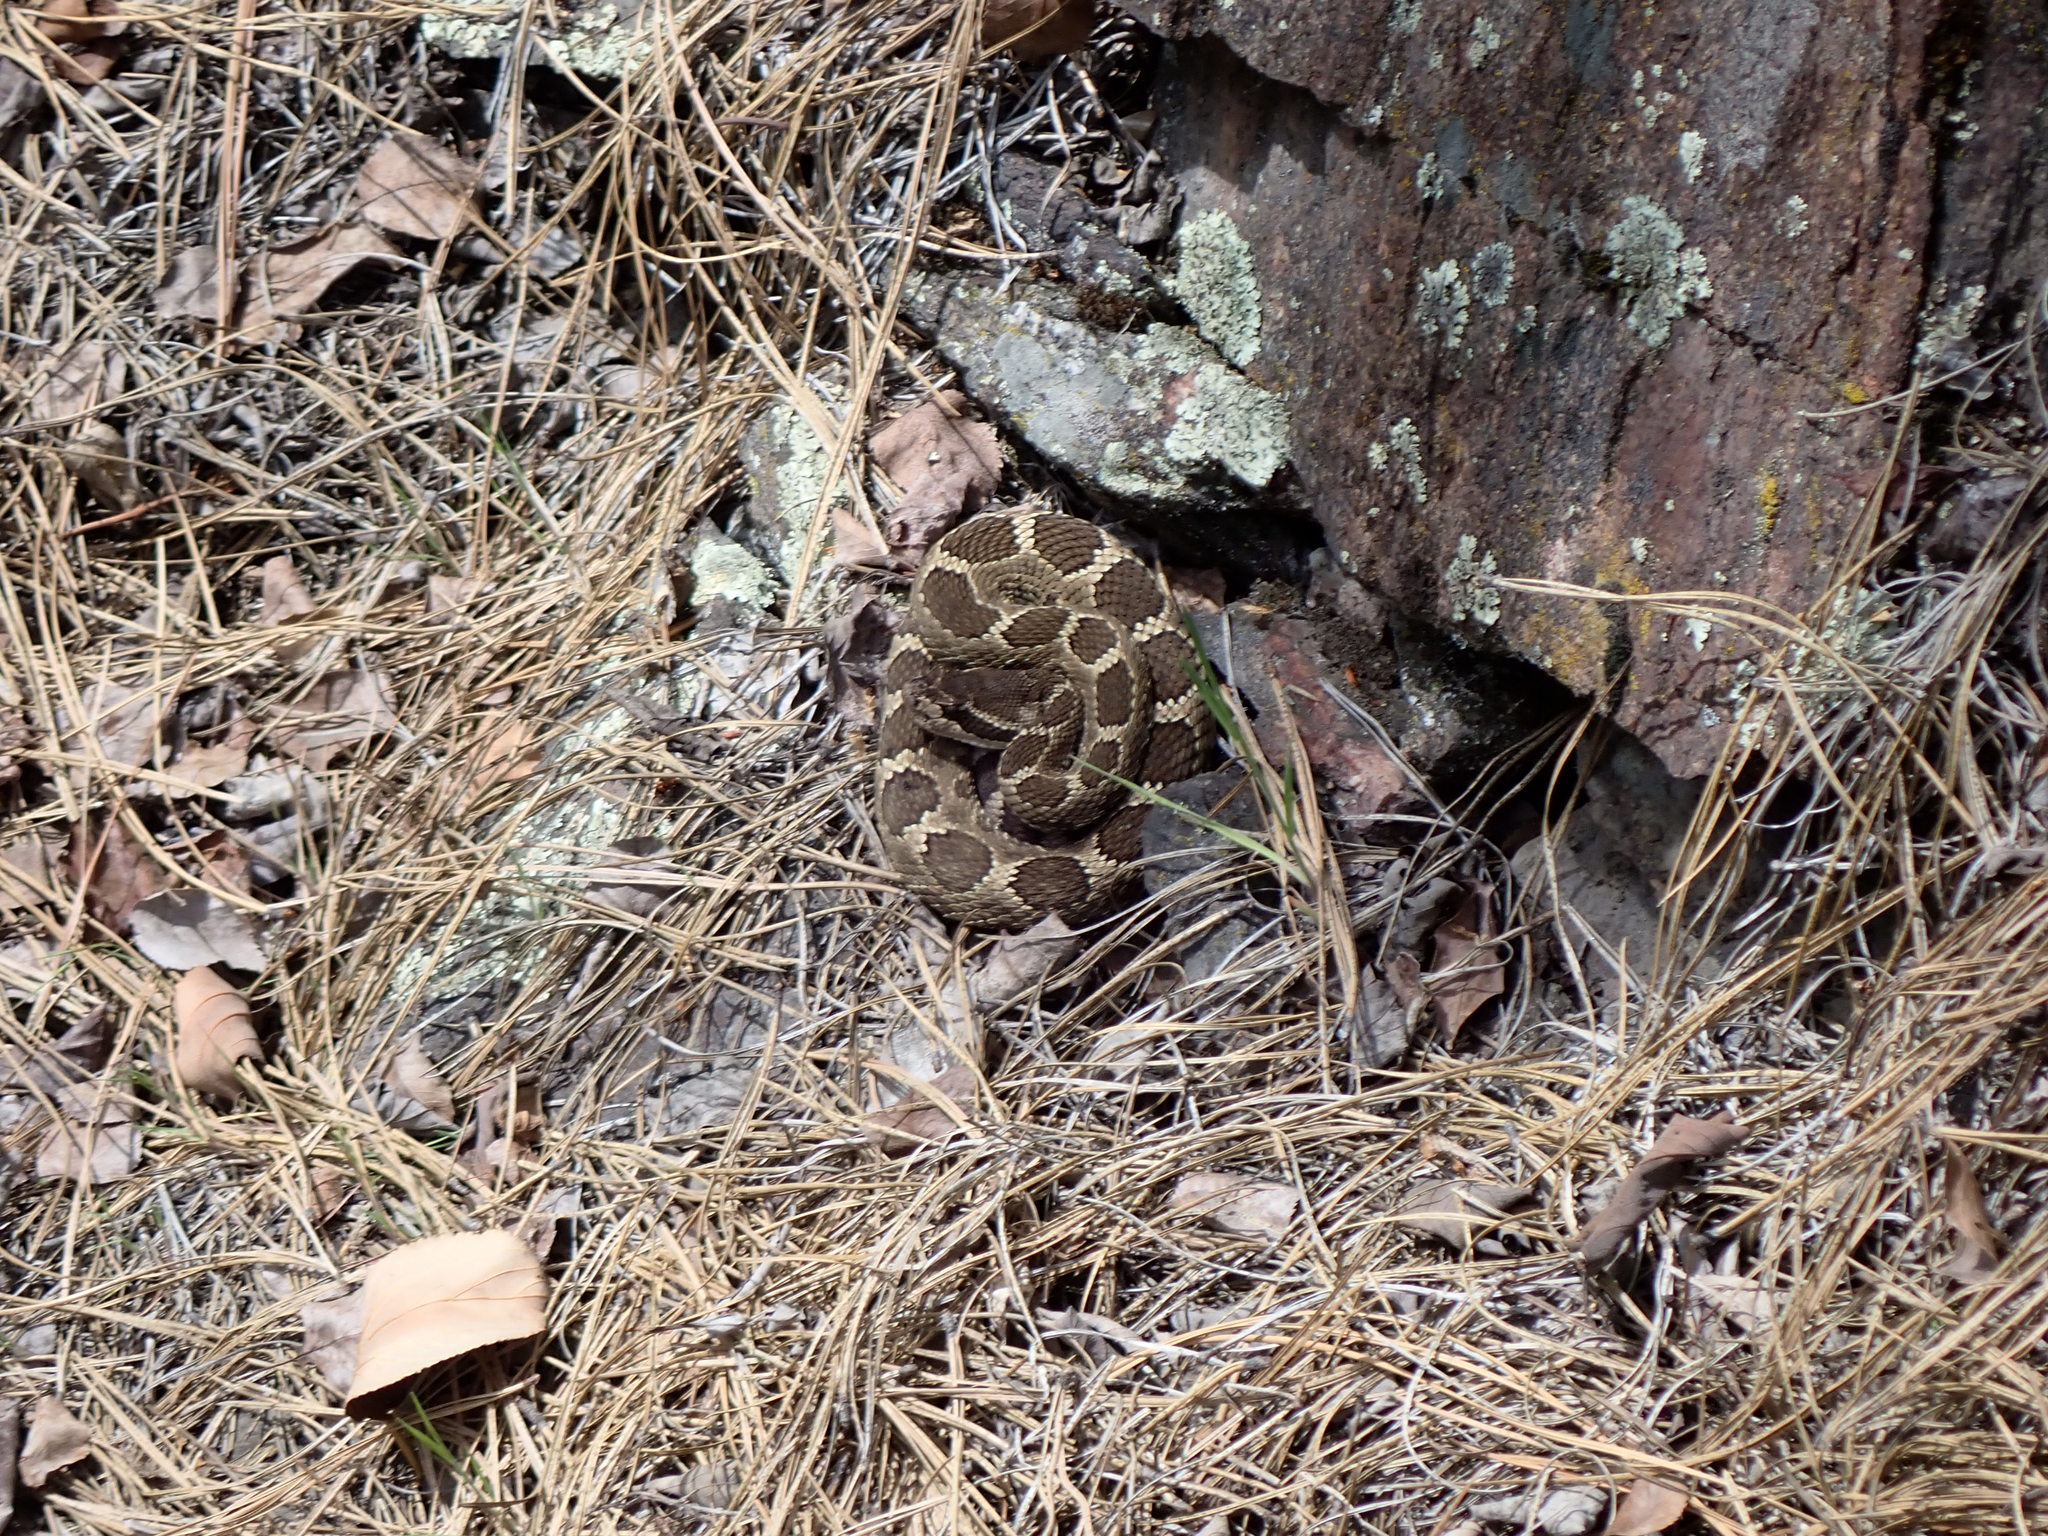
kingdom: Animalia
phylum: Chordata
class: Squamata
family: Viperidae
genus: Crotalus
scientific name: Crotalus oreganus
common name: Abyssus
